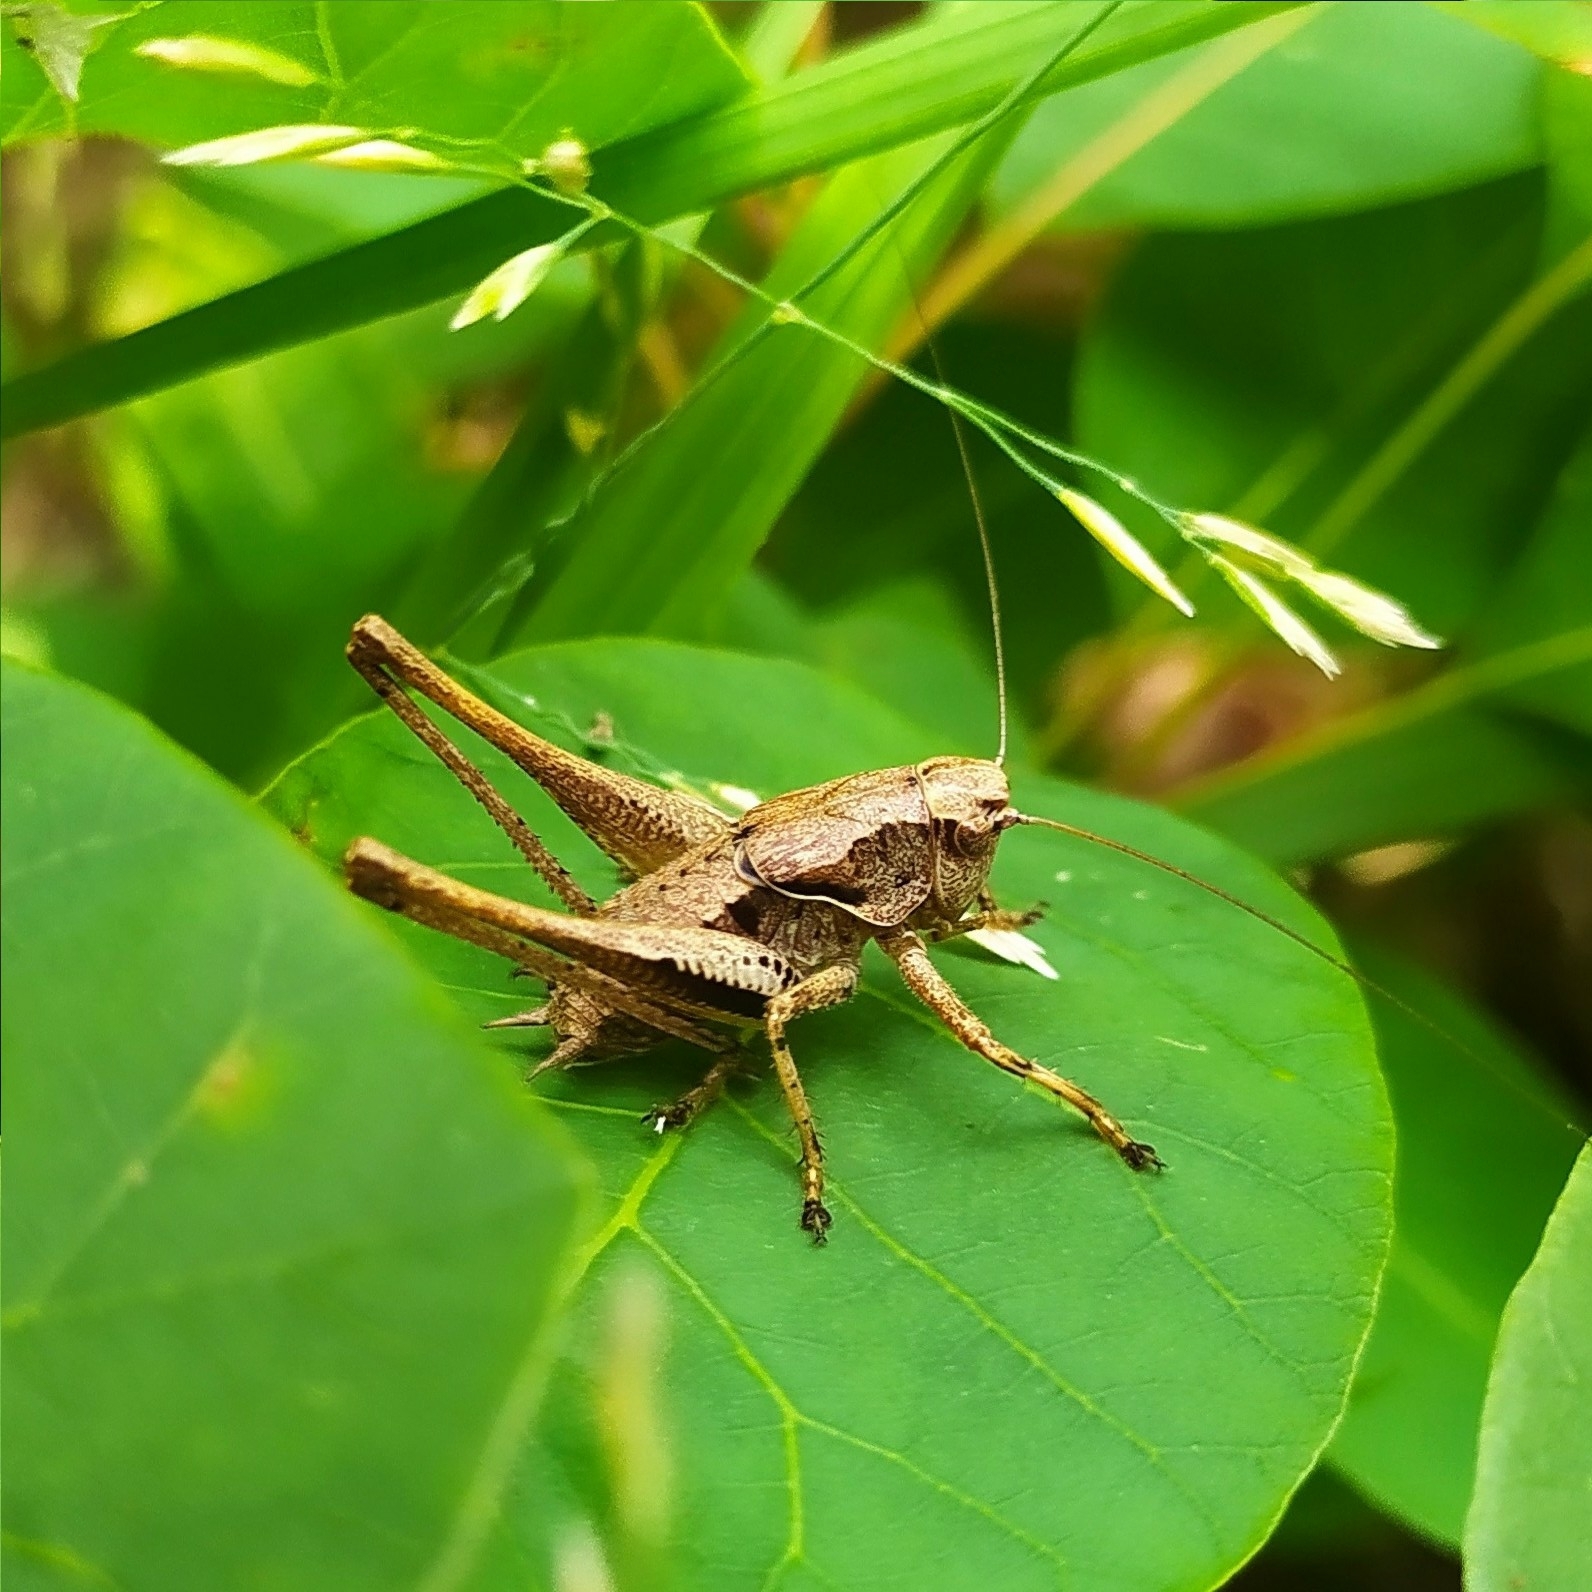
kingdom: Animalia
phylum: Arthropoda
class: Insecta
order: Orthoptera
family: Tettigoniidae
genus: Pholidoptera
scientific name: Pholidoptera griseoaptera
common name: Dark bush-cricket
